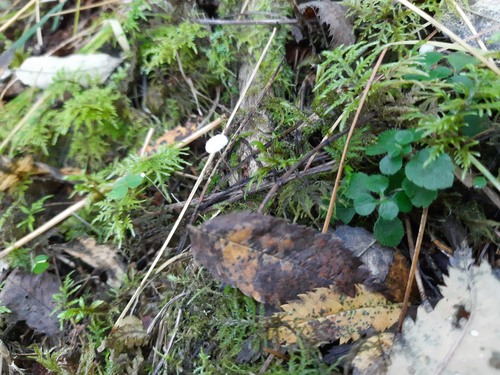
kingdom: Fungi
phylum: Basidiomycota
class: Agaricomycetes
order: Agaricales
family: Marasmiaceae
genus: Marasmius
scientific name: Marasmius
